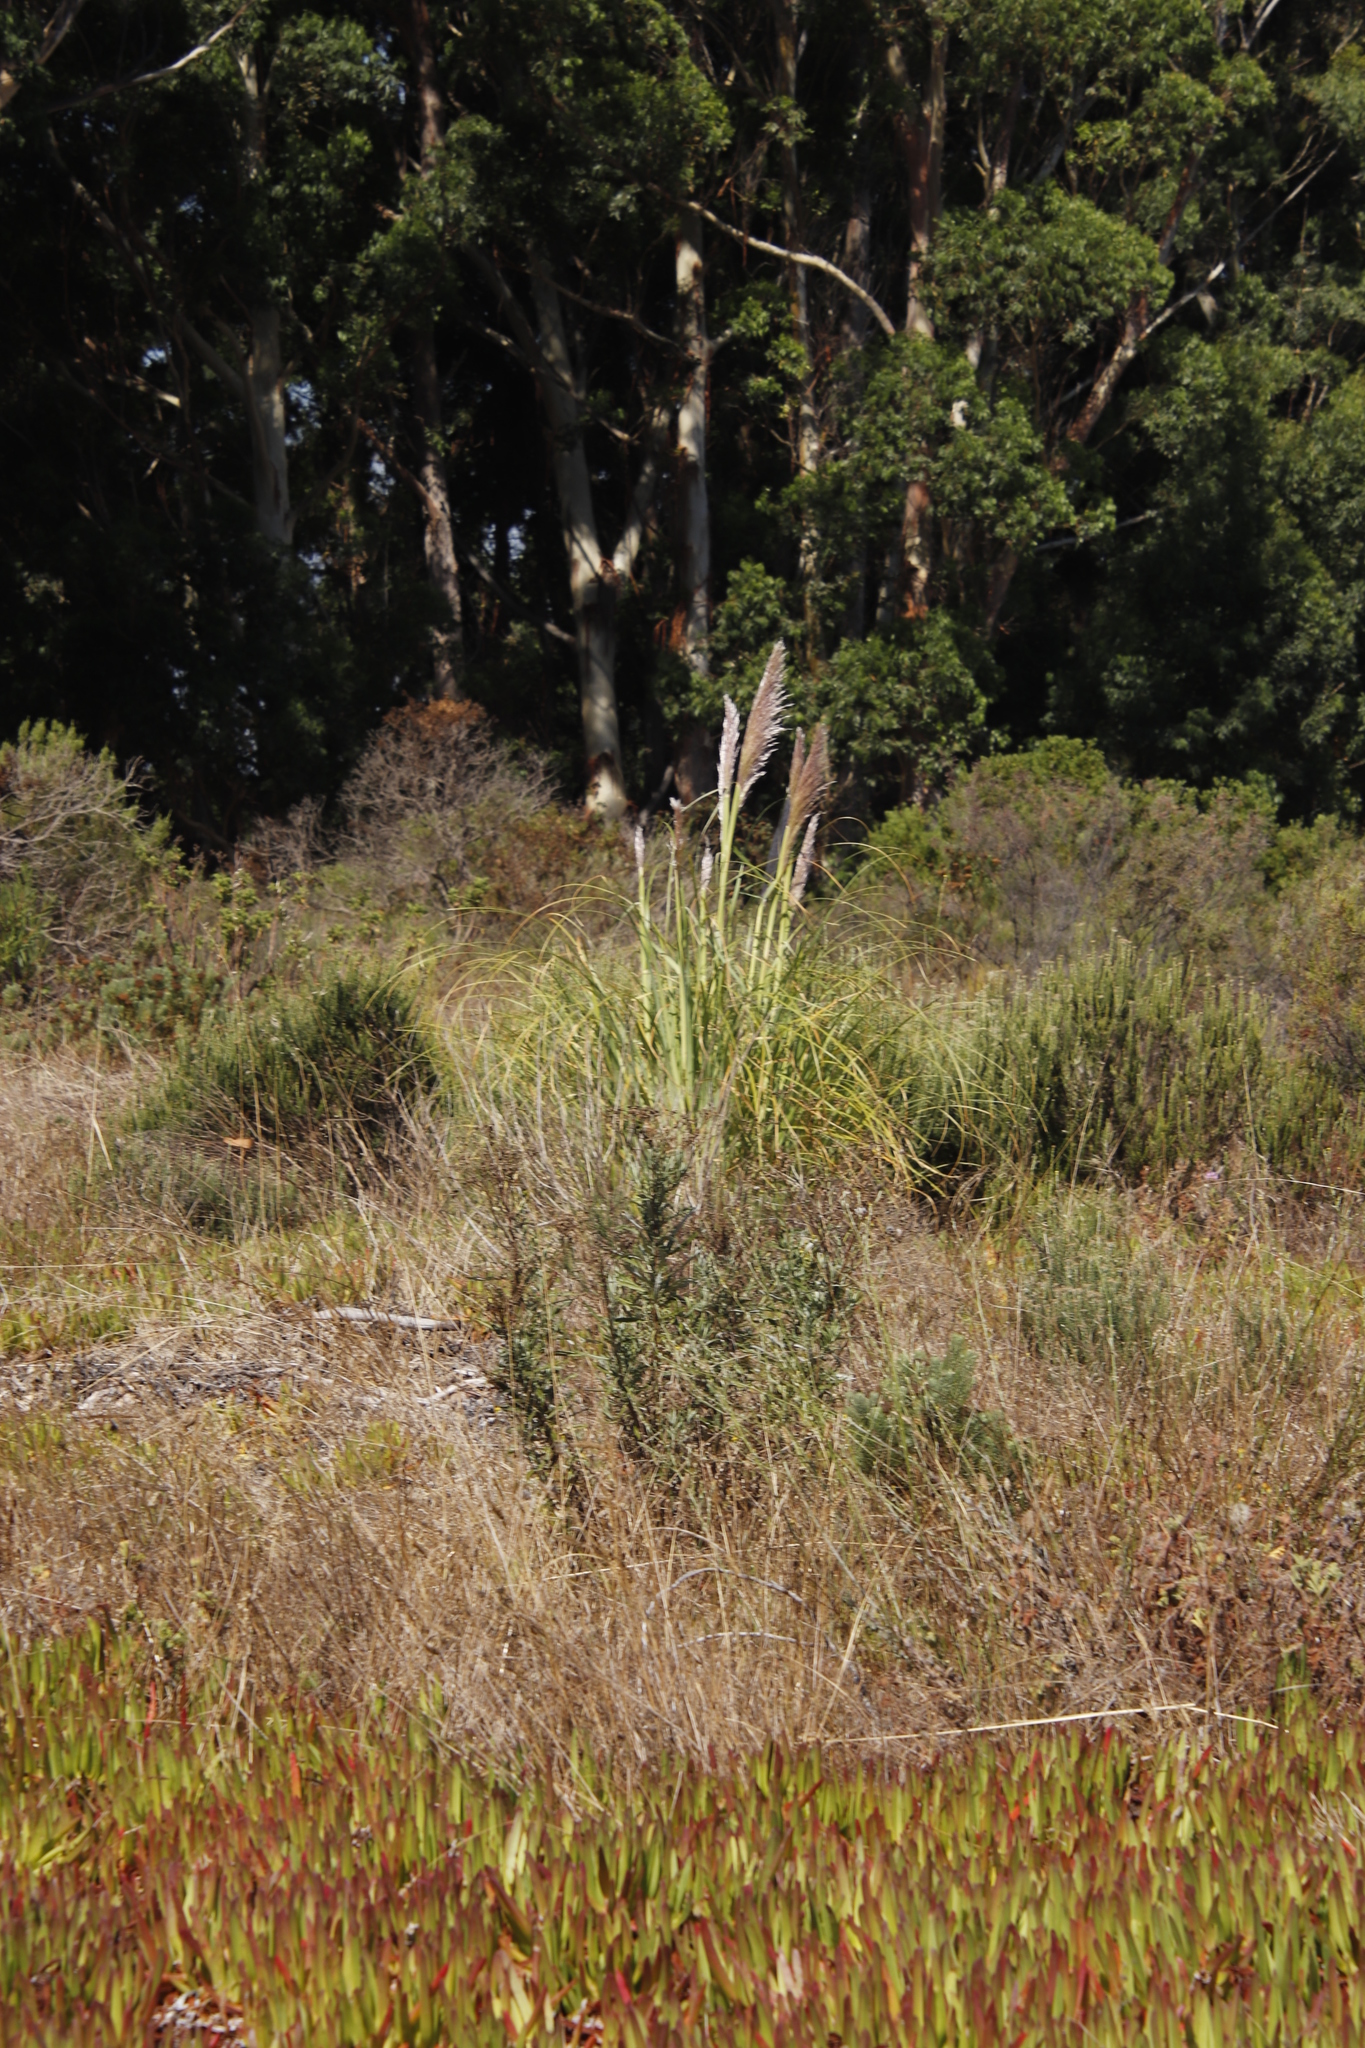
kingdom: Plantae
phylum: Tracheophyta
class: Liliopsida
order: Poales
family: Poaceae
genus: Cortaderia
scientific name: Cortaderia selloana
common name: Uruguayan pampas grass
